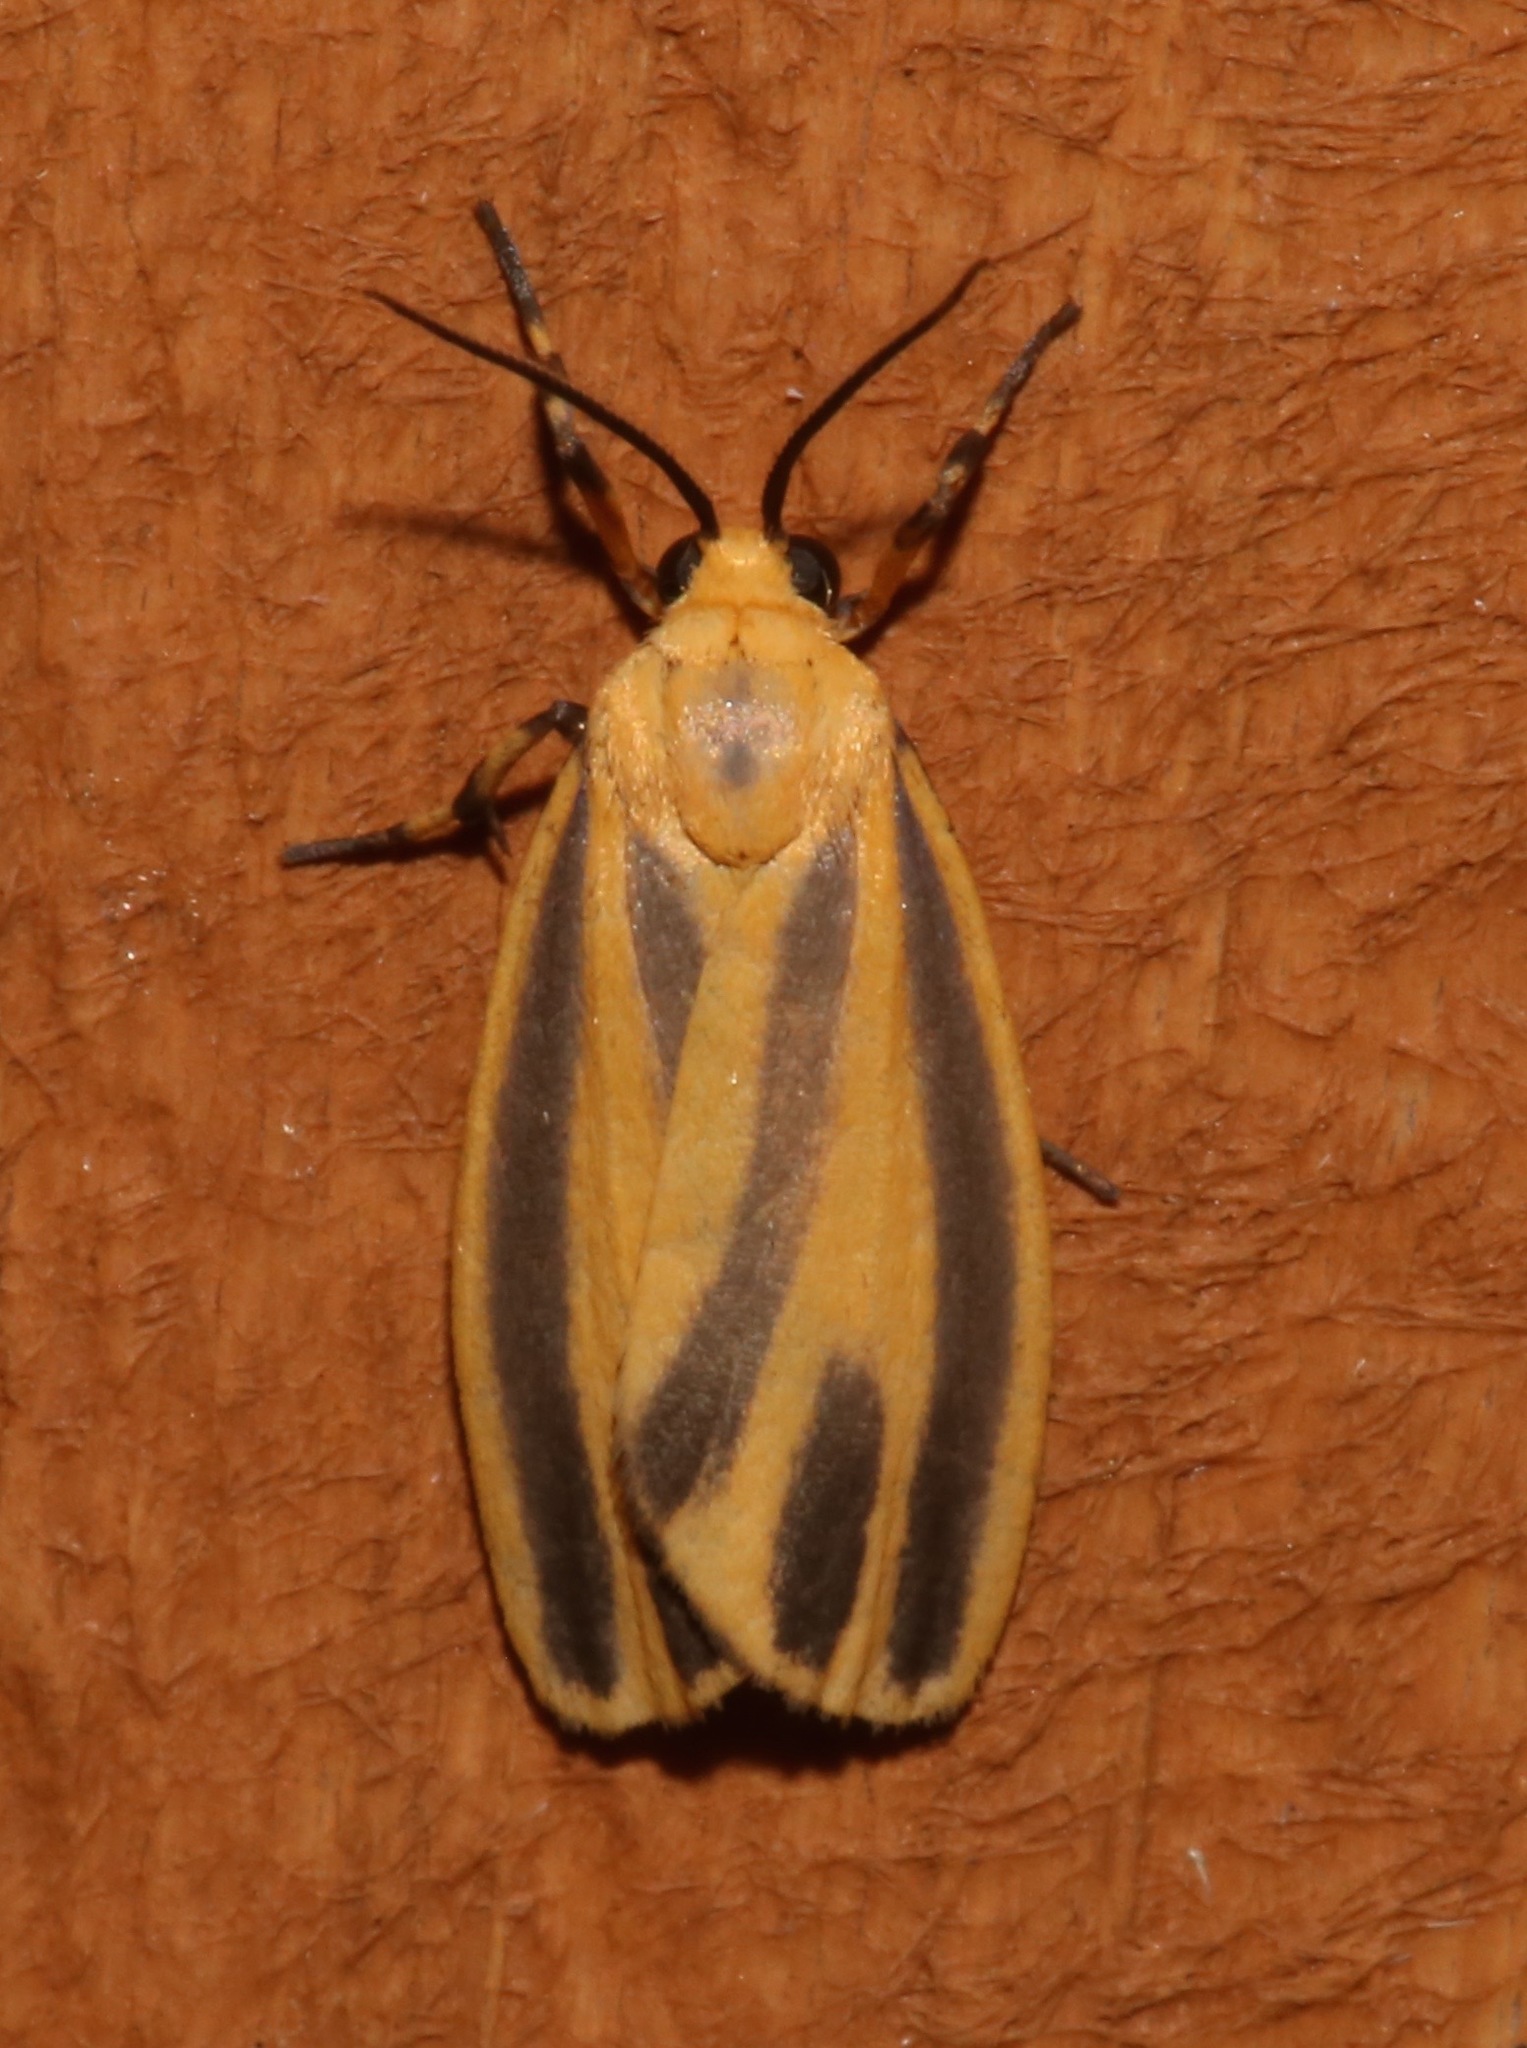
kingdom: Animalia
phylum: Arthropoda
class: Insecta
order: Lepidoptera
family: Erebidae
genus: Hypoprepia
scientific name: Hypoprepia
